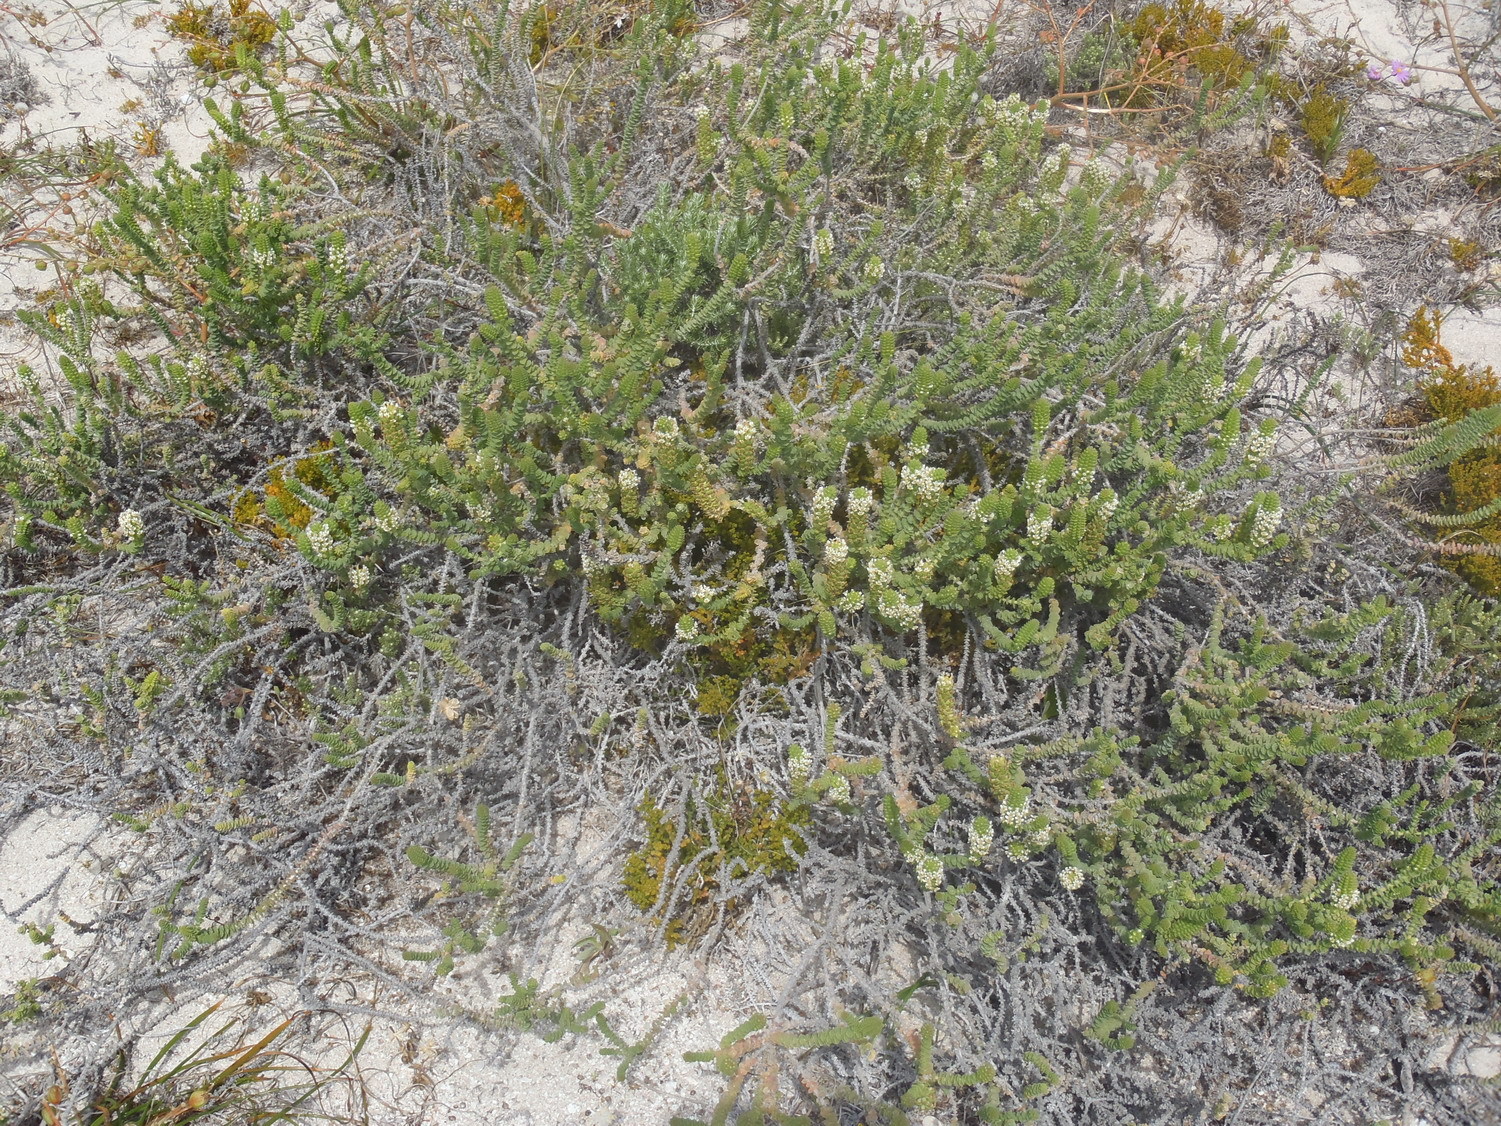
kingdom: Plantae
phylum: Tracheophyta
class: Magnoliopsida
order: Lamiales
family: Scrophulariaceae
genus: Hebenstretia
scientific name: Hebenstretia cordata
